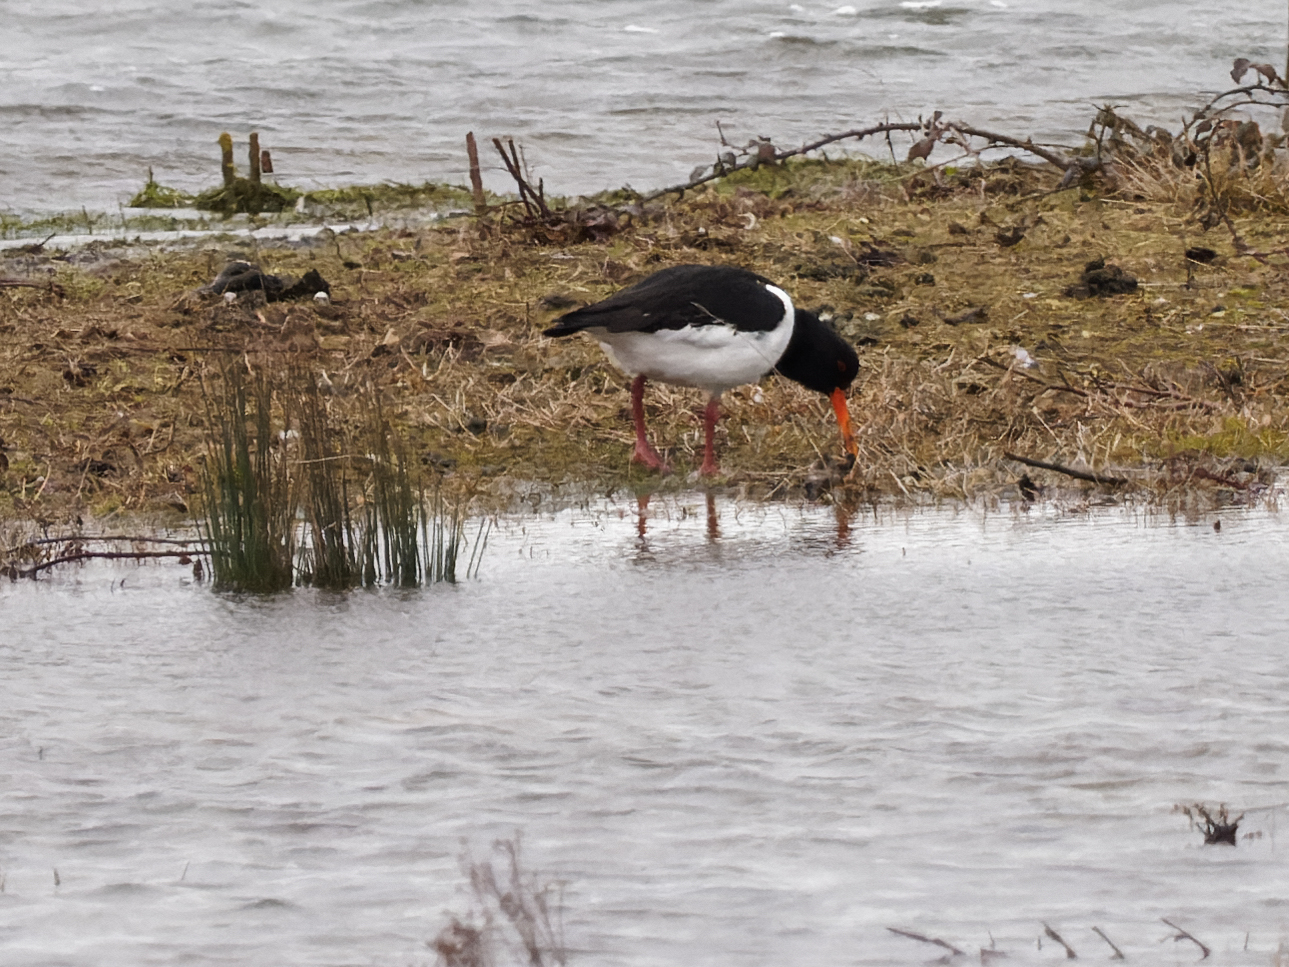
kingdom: Animalia
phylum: Chordata
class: Aves
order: Charadriiformes
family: Haematopodidae
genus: Haematopus
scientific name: Haematopus ostralegus
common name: Eurasian oystercatcher
